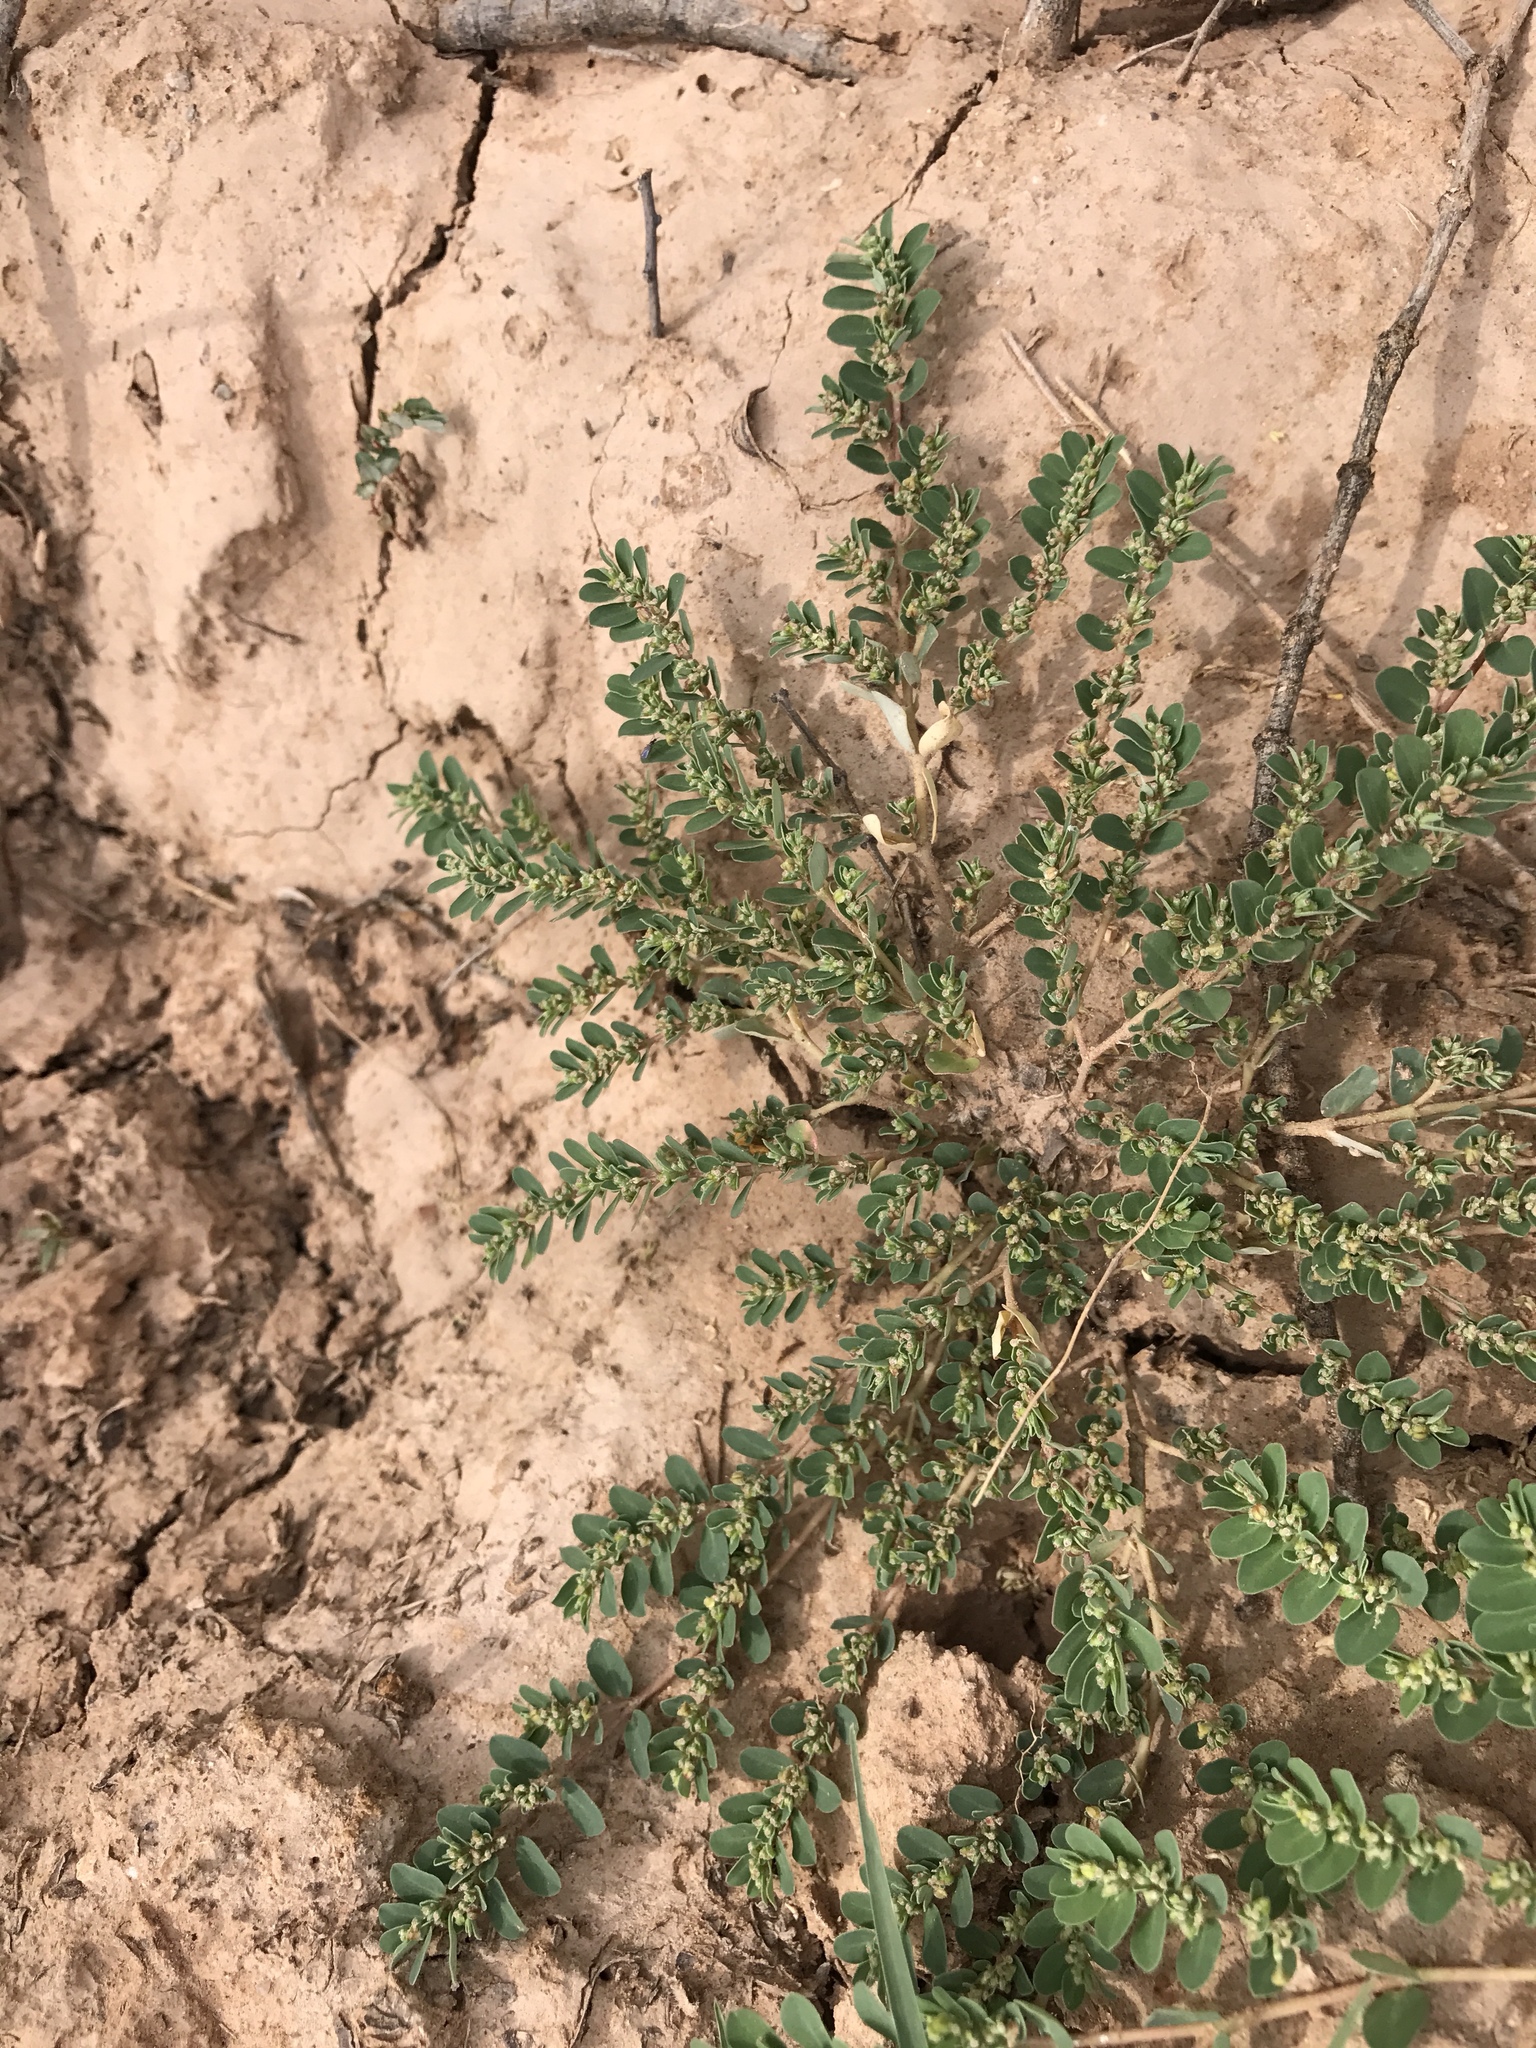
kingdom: Plantae
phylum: Tracheophyta
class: Magnoliopsida
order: Malpighiales
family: Euphorbiaceae
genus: Euphorbia
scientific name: Euphorbia prostrata
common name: Prostrate sandmat
